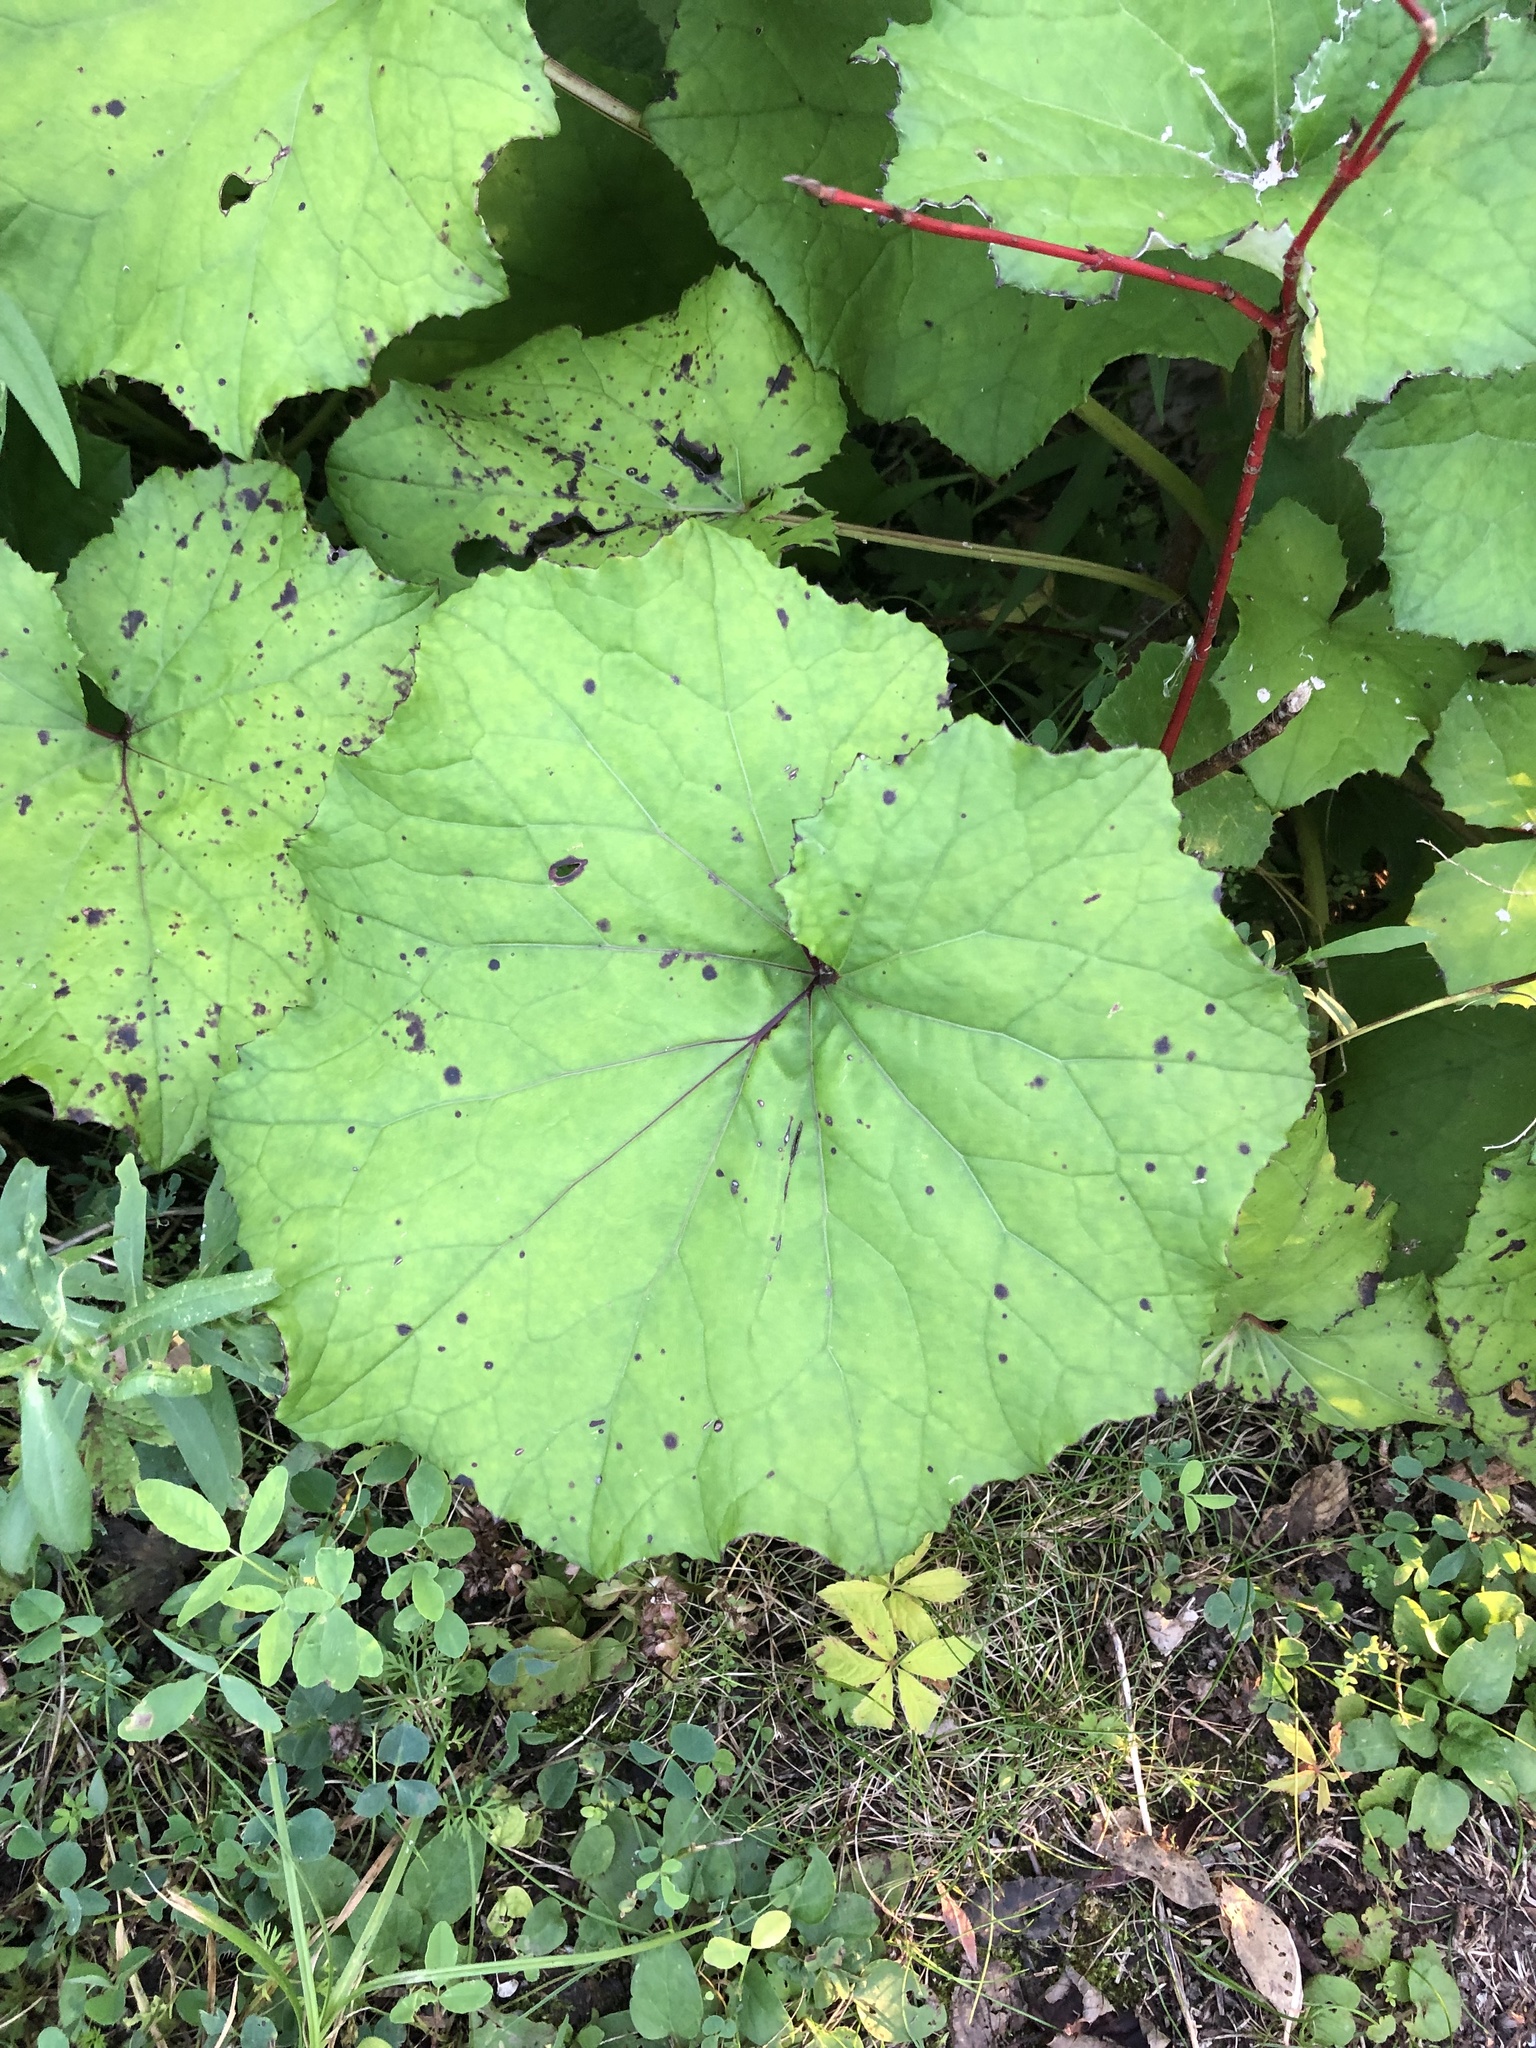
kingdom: Plantae
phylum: Tracheophyta
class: Magnoliopsida
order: Asterales
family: Asteraceae
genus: Tussilago
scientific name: Tussilago farfara
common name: Coltsfoot
